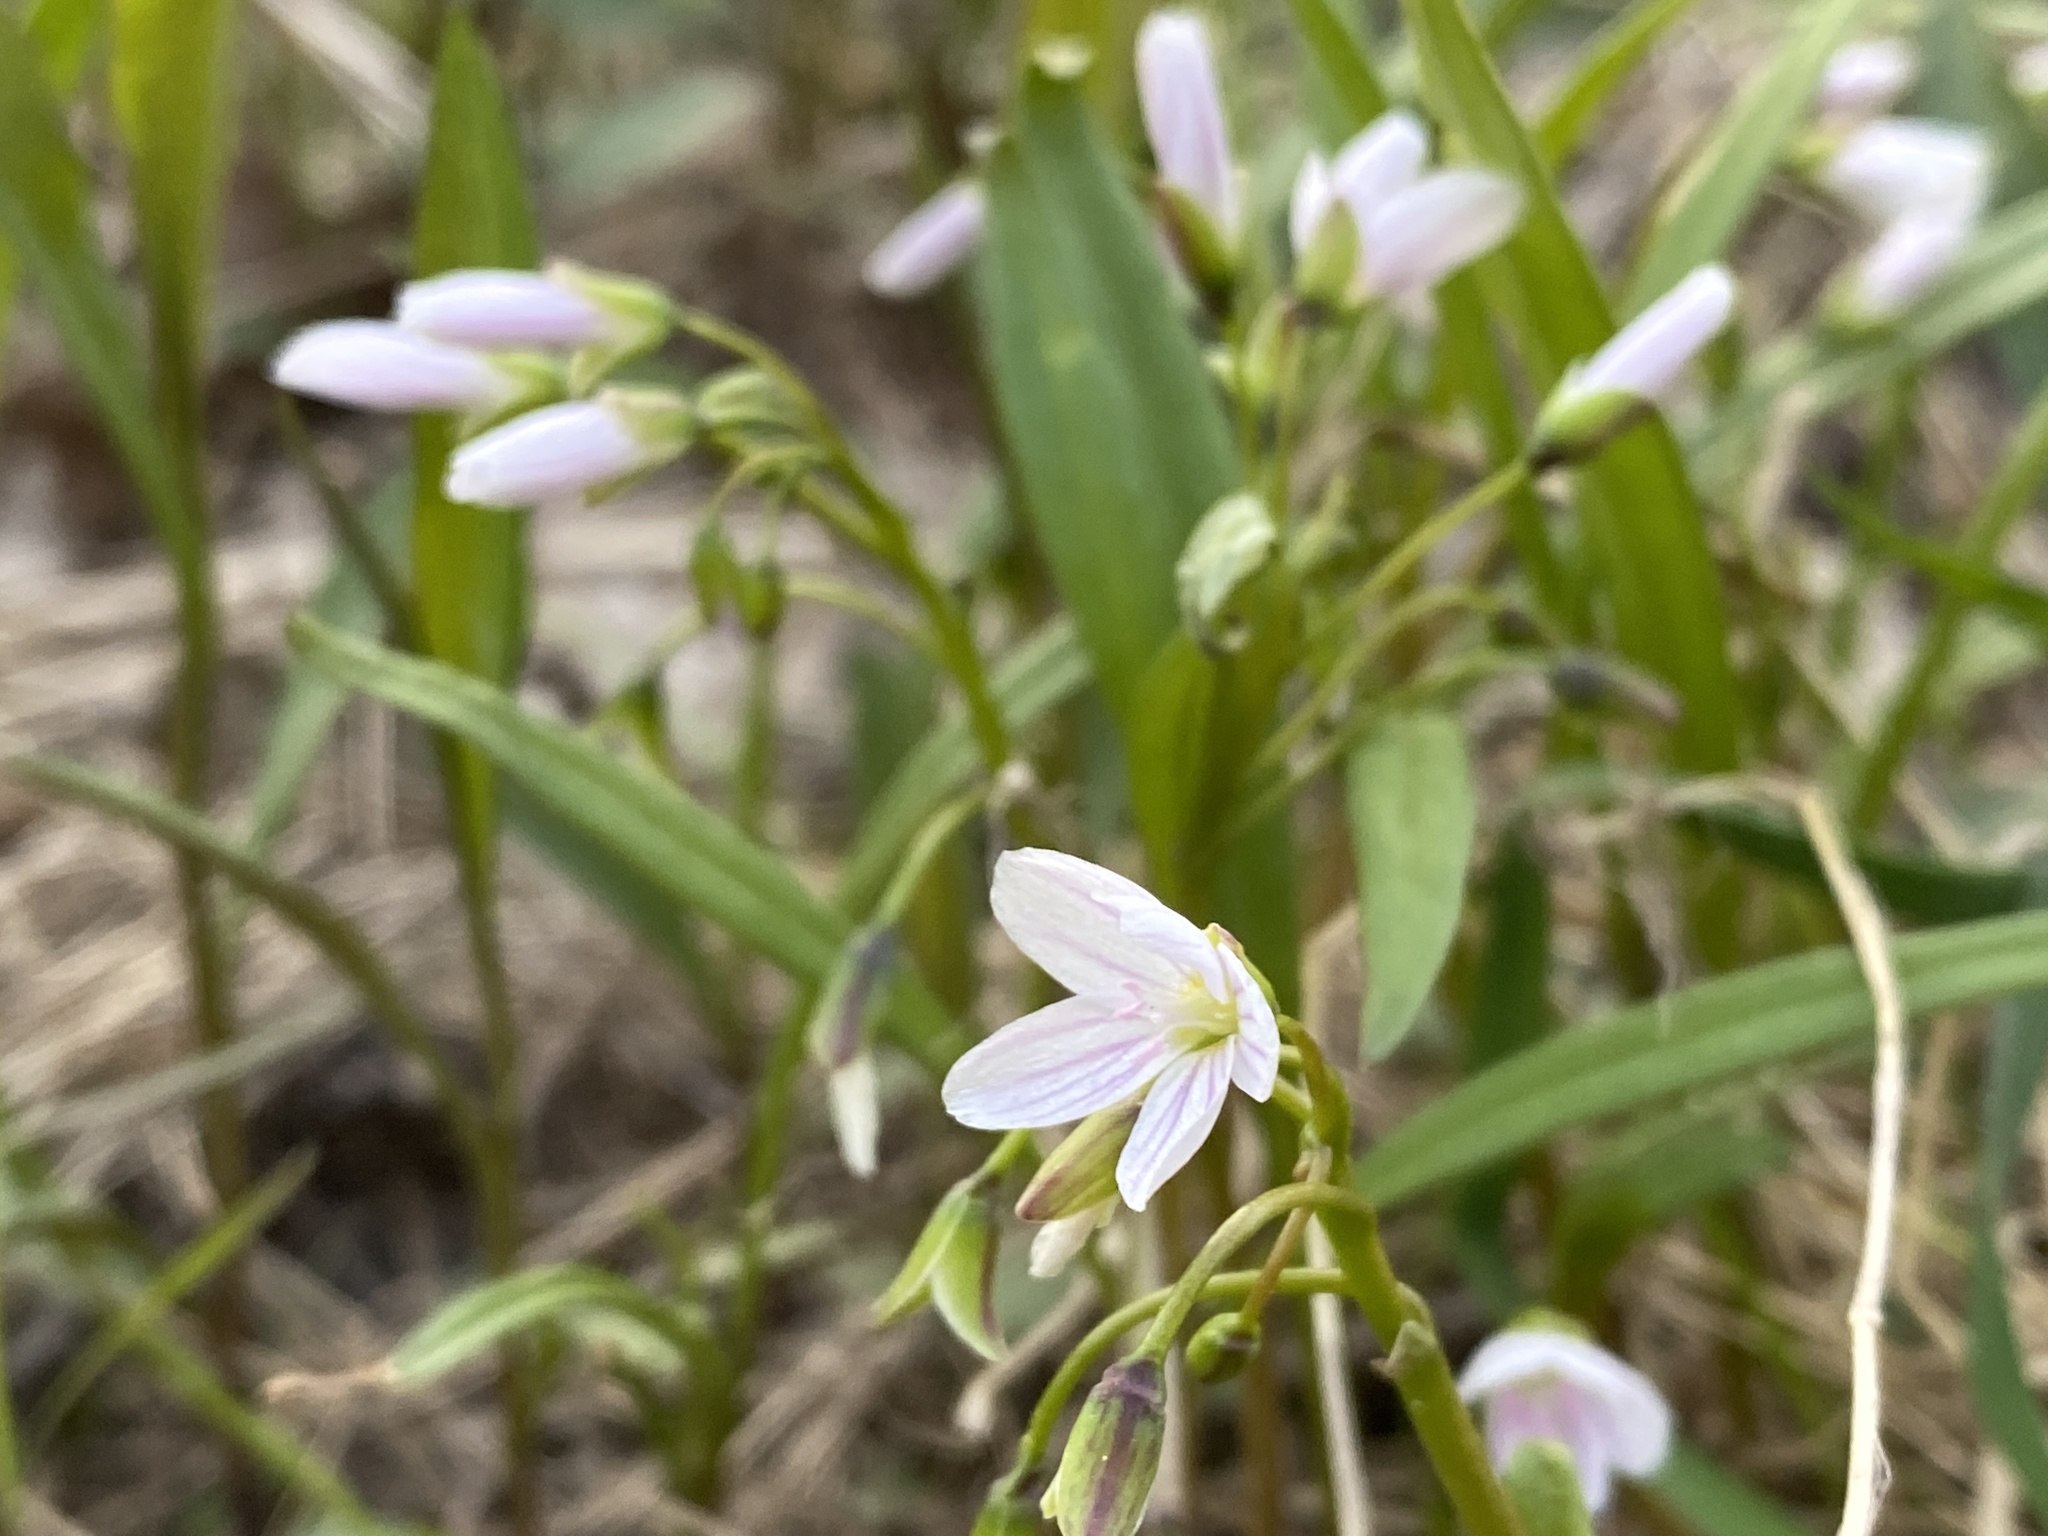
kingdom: Plantae
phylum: Tracheophyta
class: Magnoliopsida
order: Caryophyllales
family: Montiaceae
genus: Claytonia
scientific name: Claytonia virginica
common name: Virginia springbeauty
